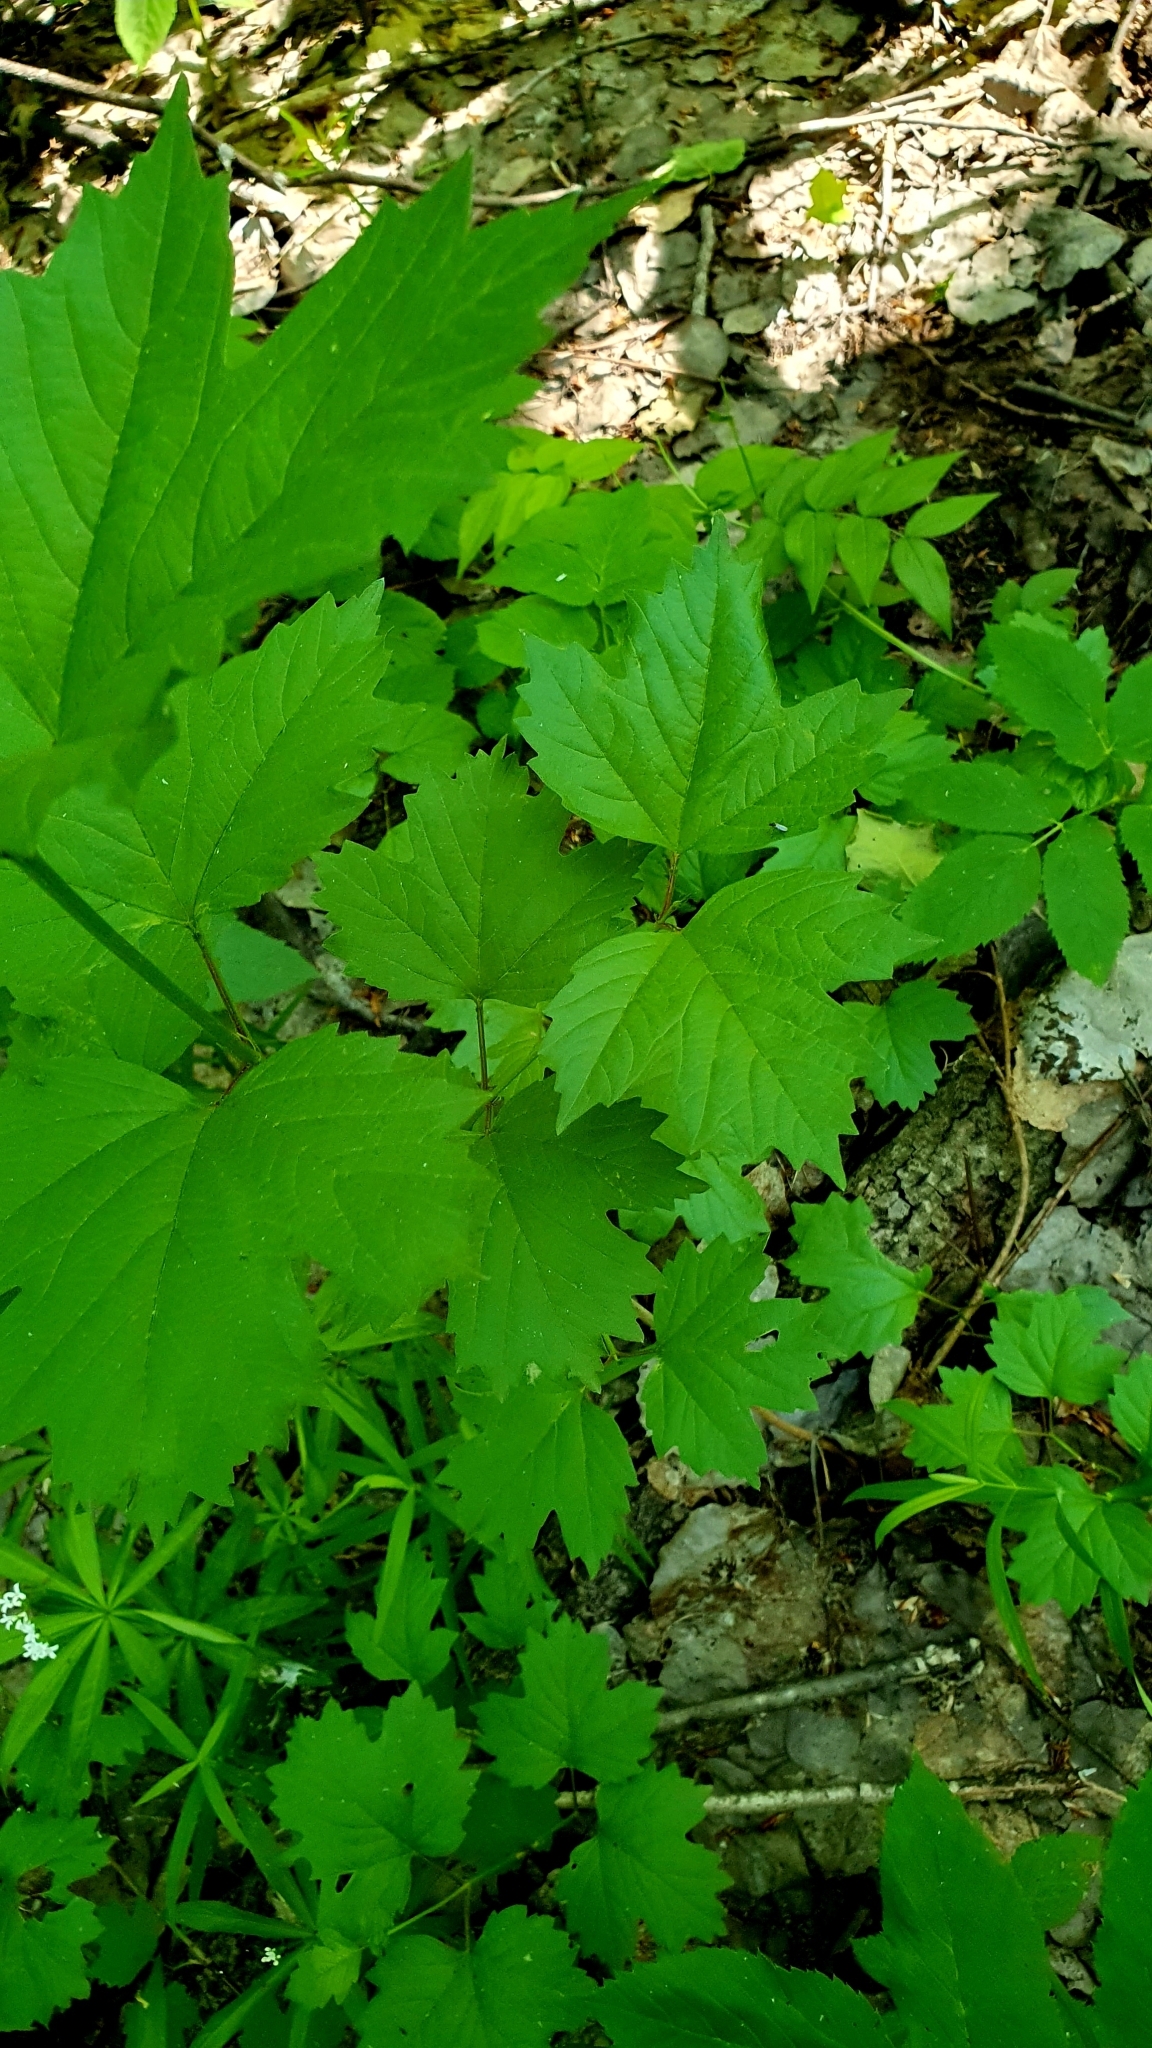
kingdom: Plantae
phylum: Tracheophyta
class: Magnoliopsida
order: Dipsacales
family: Viburnaceae
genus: Viburnum
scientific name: Viburnum opulus
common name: Guelder-rose
